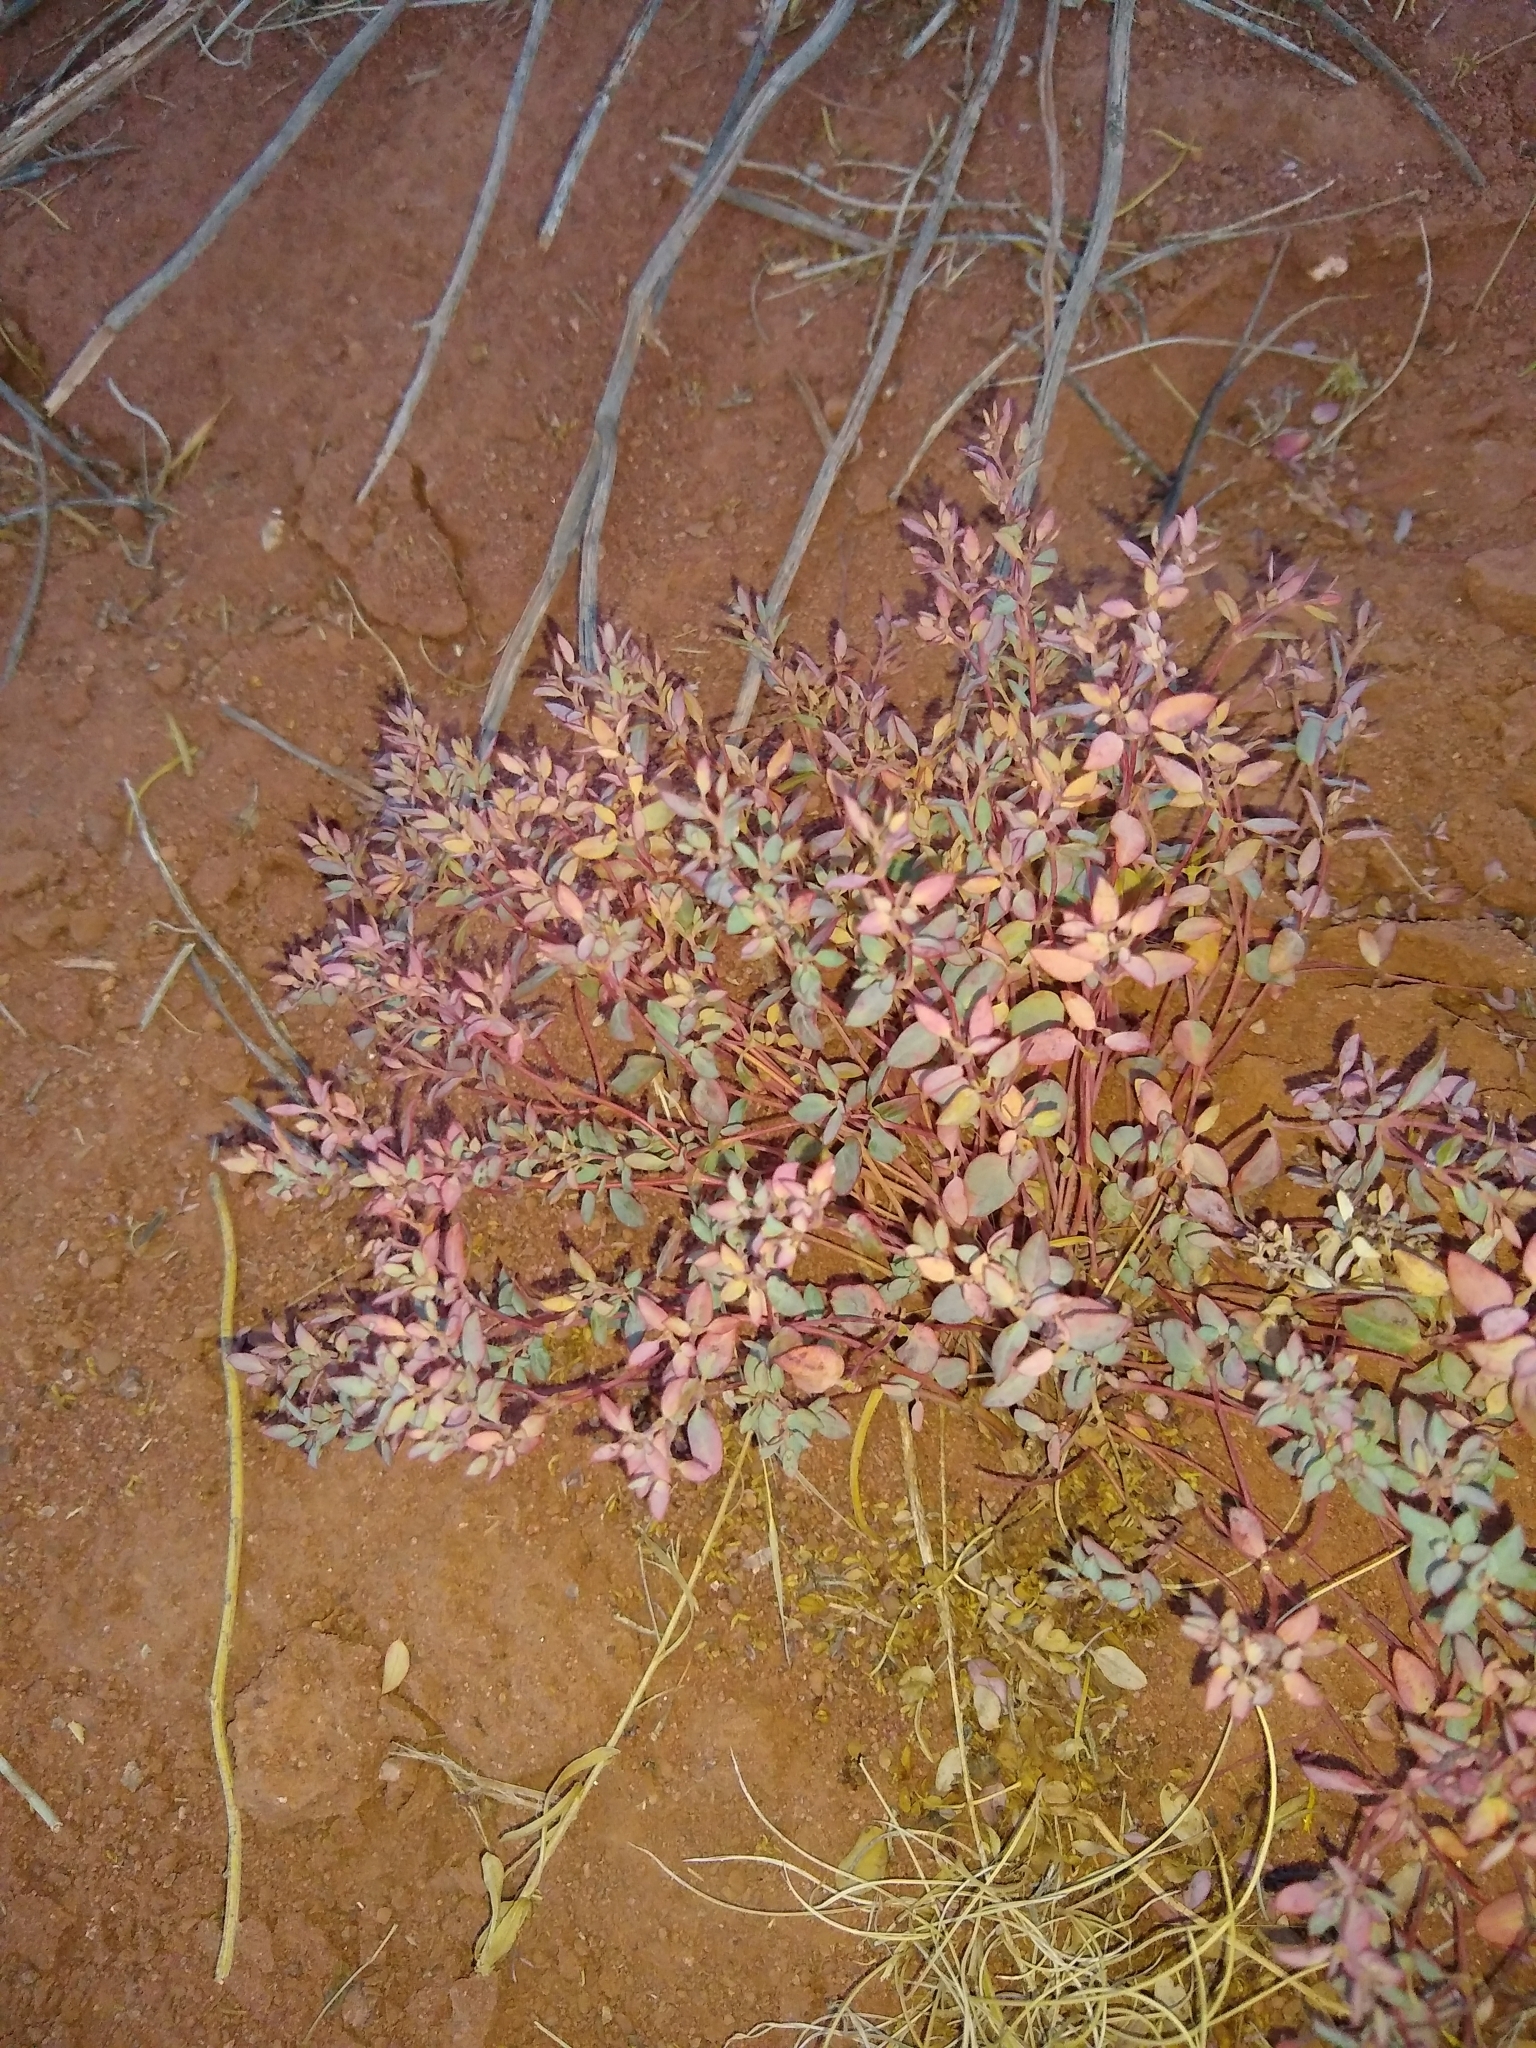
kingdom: Plantae
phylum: Tracheophyta
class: Magnoliopsida
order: Malpighiales
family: Euphorbiaceae
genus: Euphorbia
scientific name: Euphorbia fendleri
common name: Fendler's euphorbia
